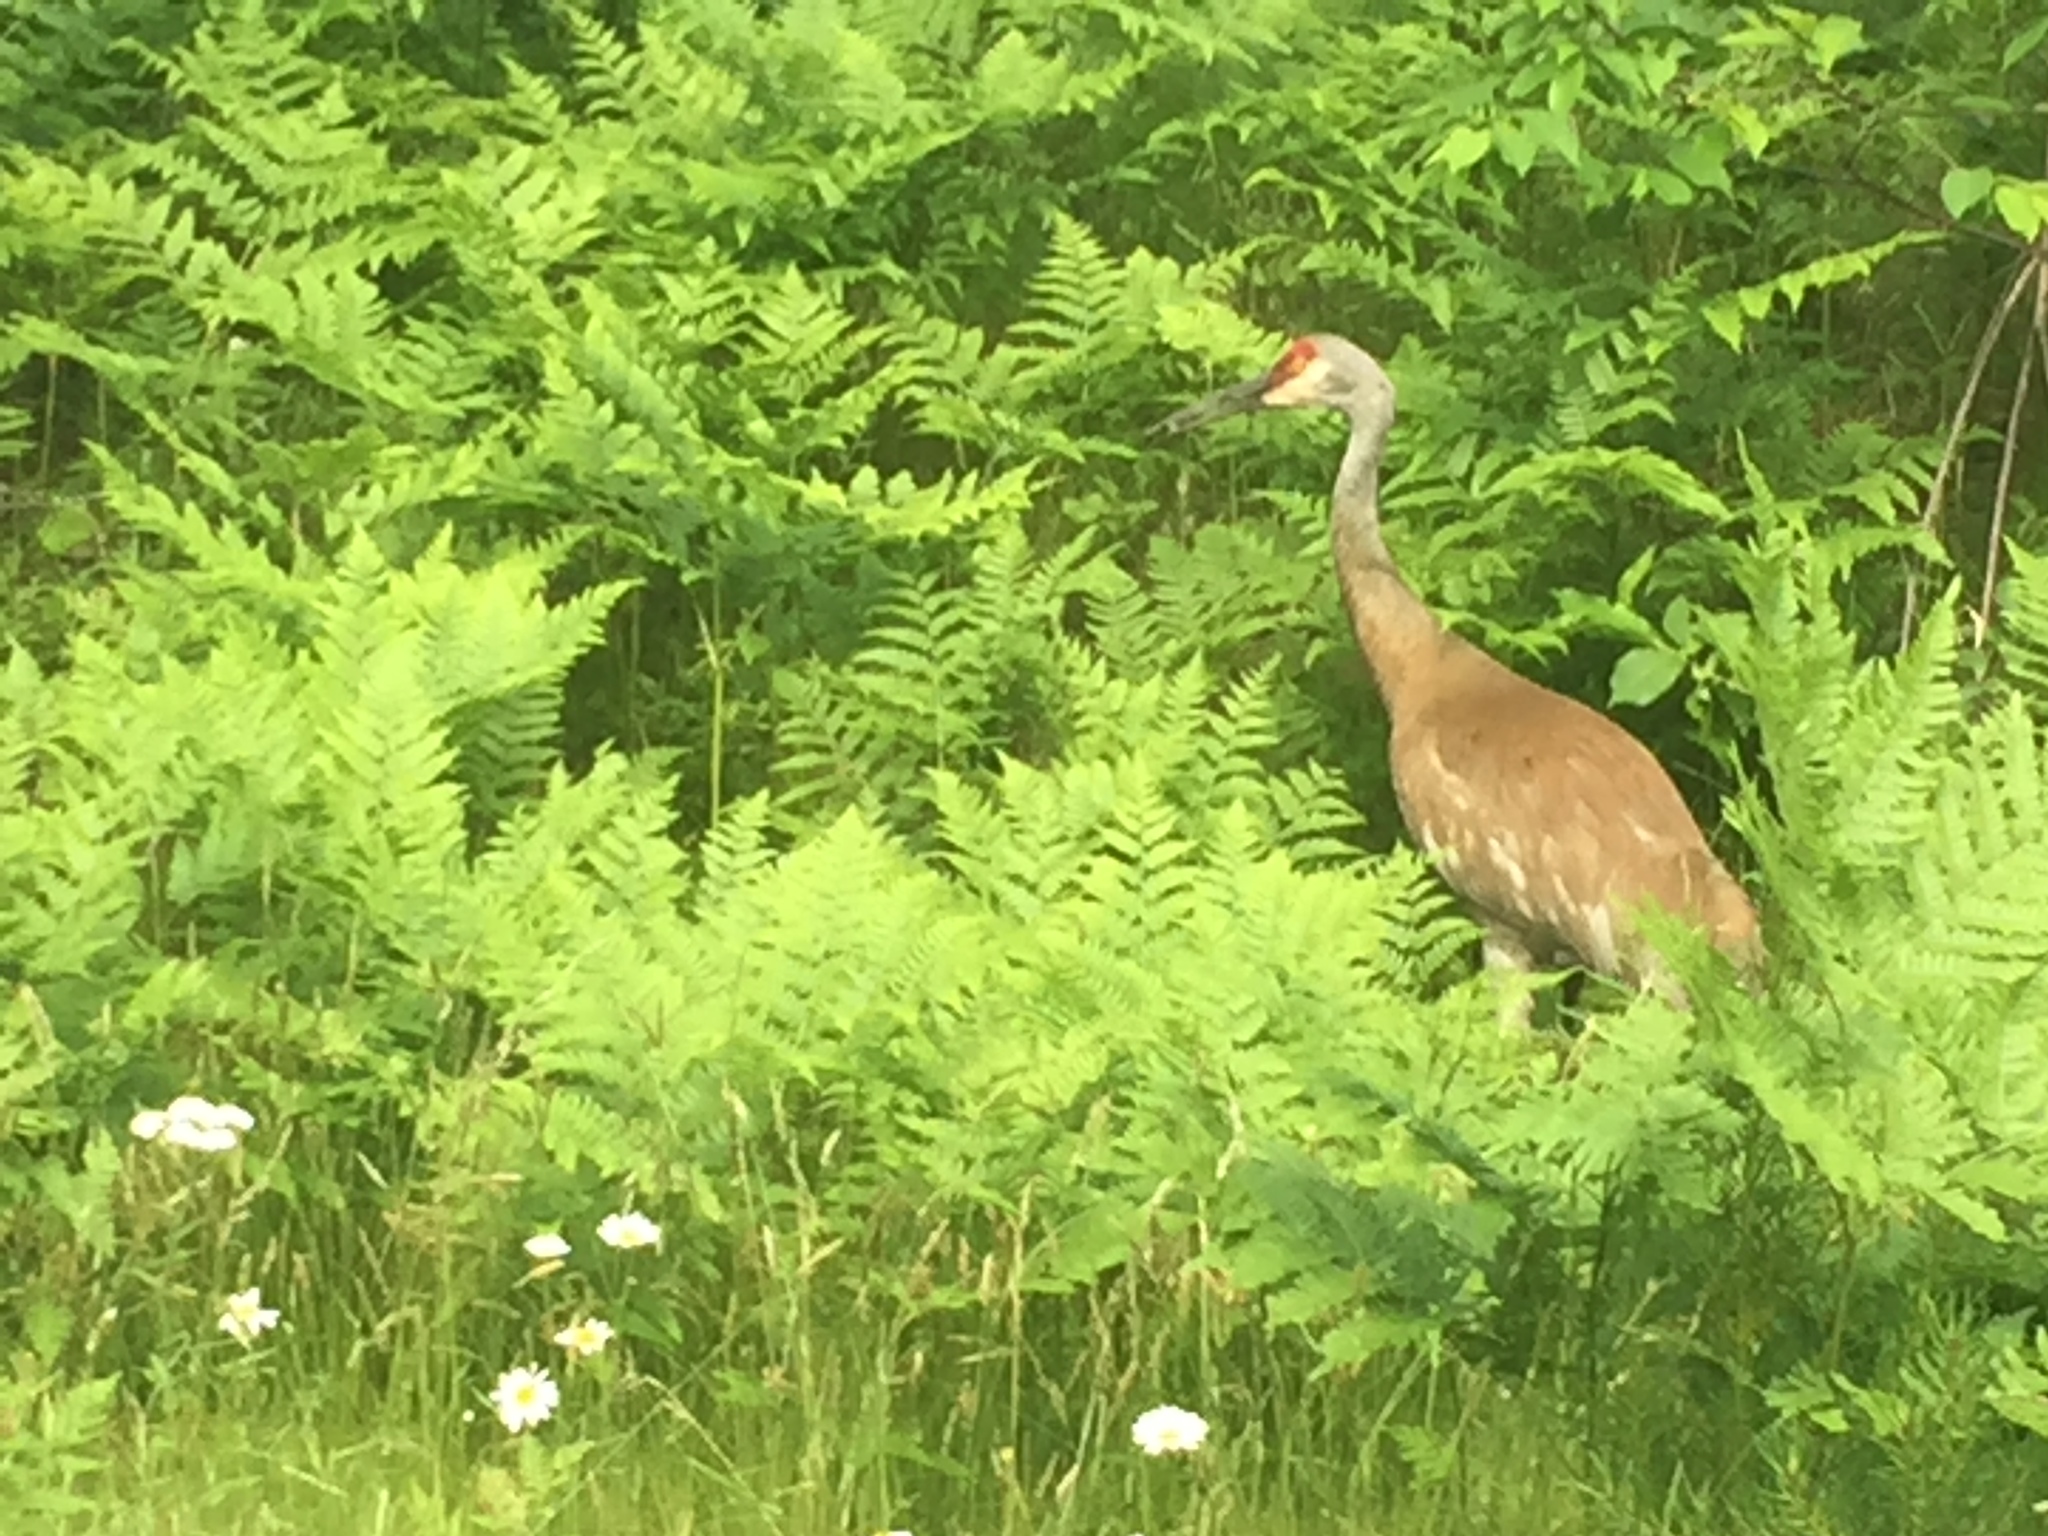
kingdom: Animalia
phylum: Chordata
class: Aves
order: Gruiformes
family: Gruidae
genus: Grus
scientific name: Grus canadensis
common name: Sandhill crane
